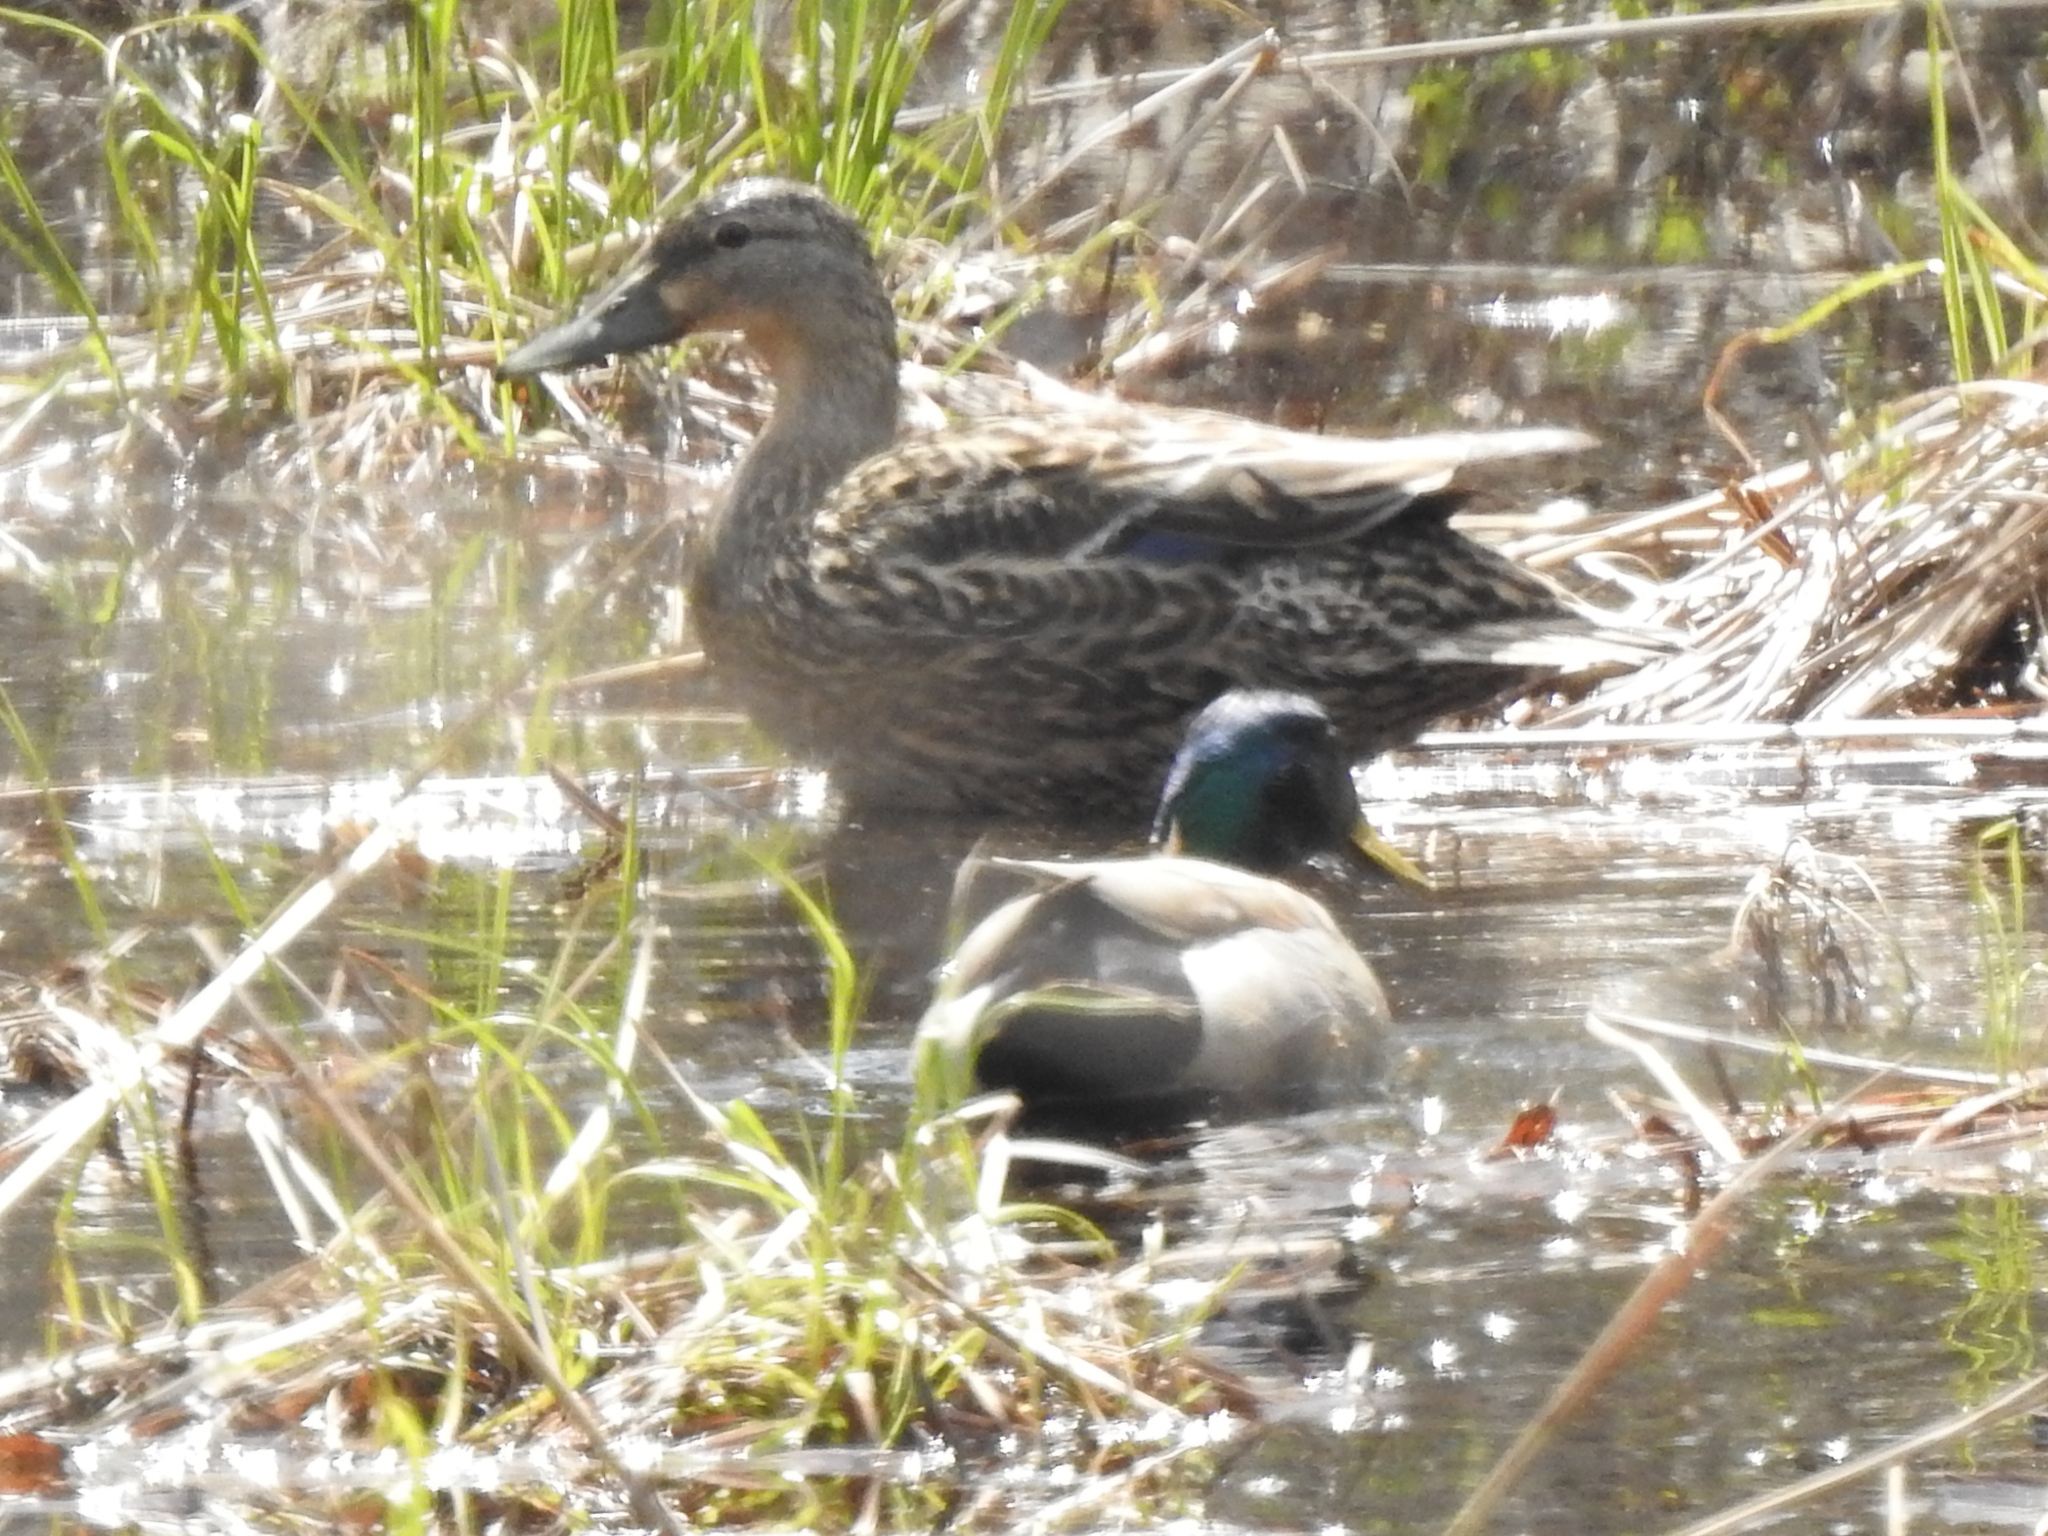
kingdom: Animalia
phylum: Chordata
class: Aves
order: Anseriformes
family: Anatidae
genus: Anas
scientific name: Anas platyrhynchos
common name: Mallard
